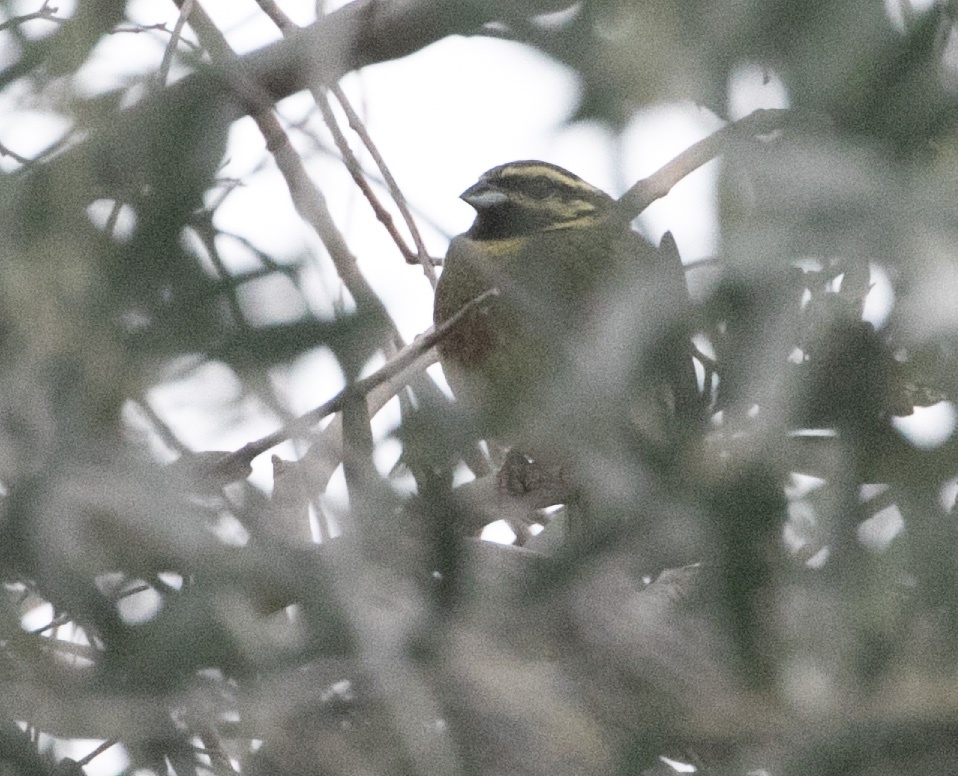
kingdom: Animalia
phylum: Chordata
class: Aves
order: Passeriformes
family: Emberizidae
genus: Emberiza
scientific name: Emberiza cirlus
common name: Cirl bunting
